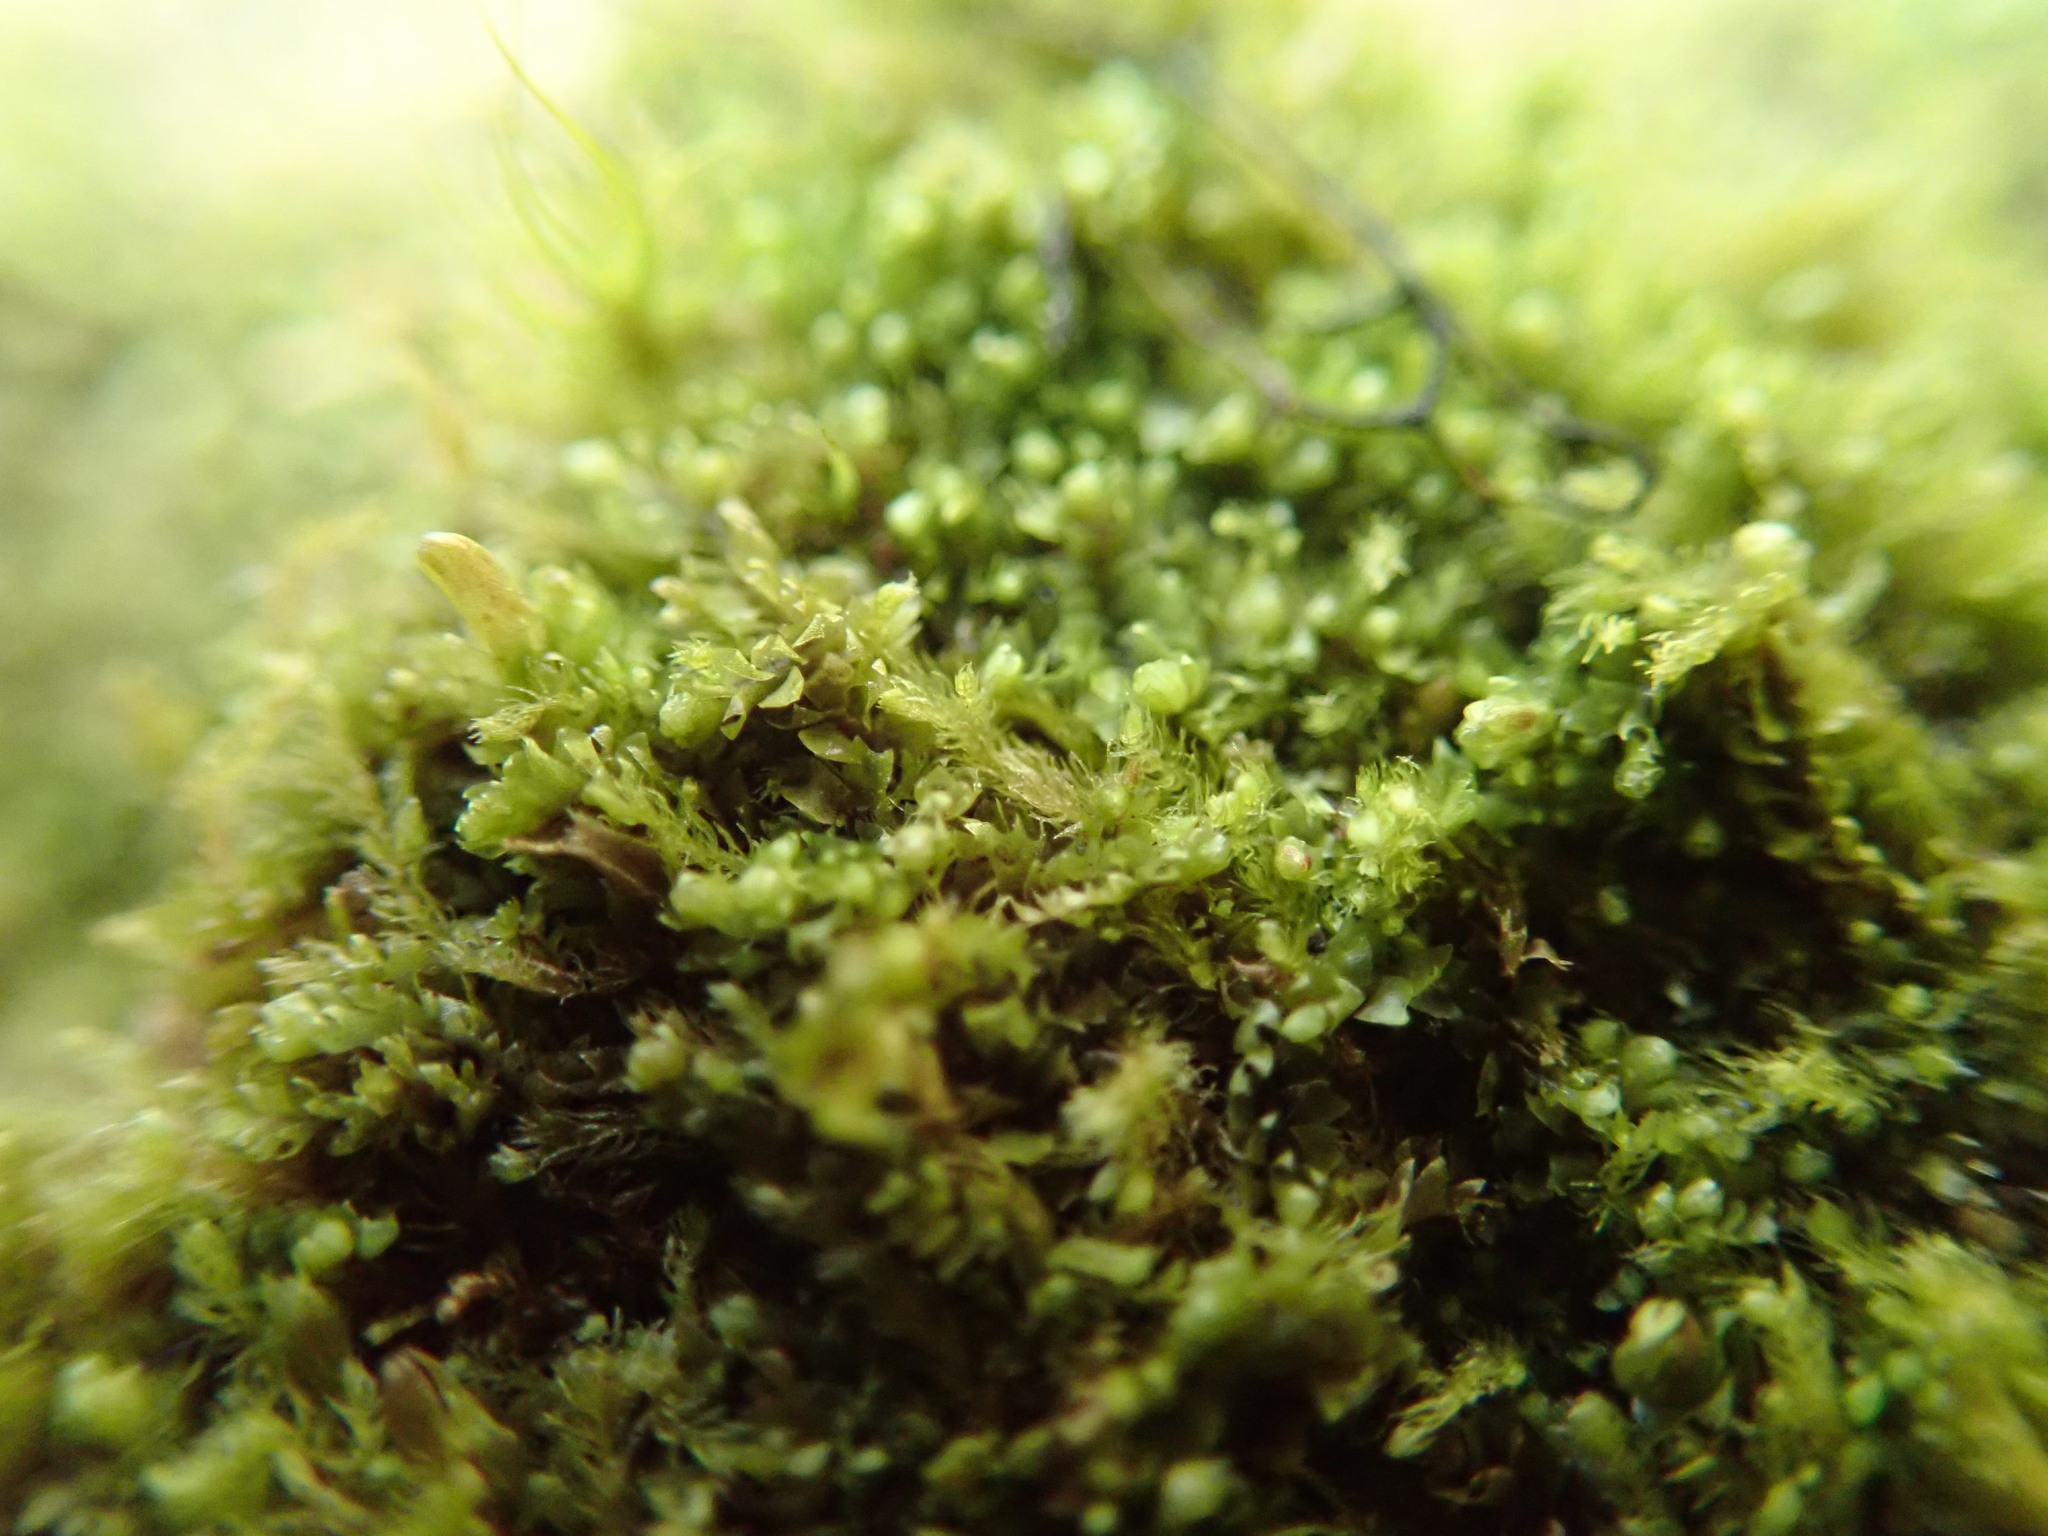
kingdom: Plantae
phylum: Marchantiophyta
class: Jungermanniopsida
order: Jungermanniales
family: Blepharostomataceae
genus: Blepharostoma
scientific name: Blepharostoma trichophyllum
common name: Hairy threadwort
